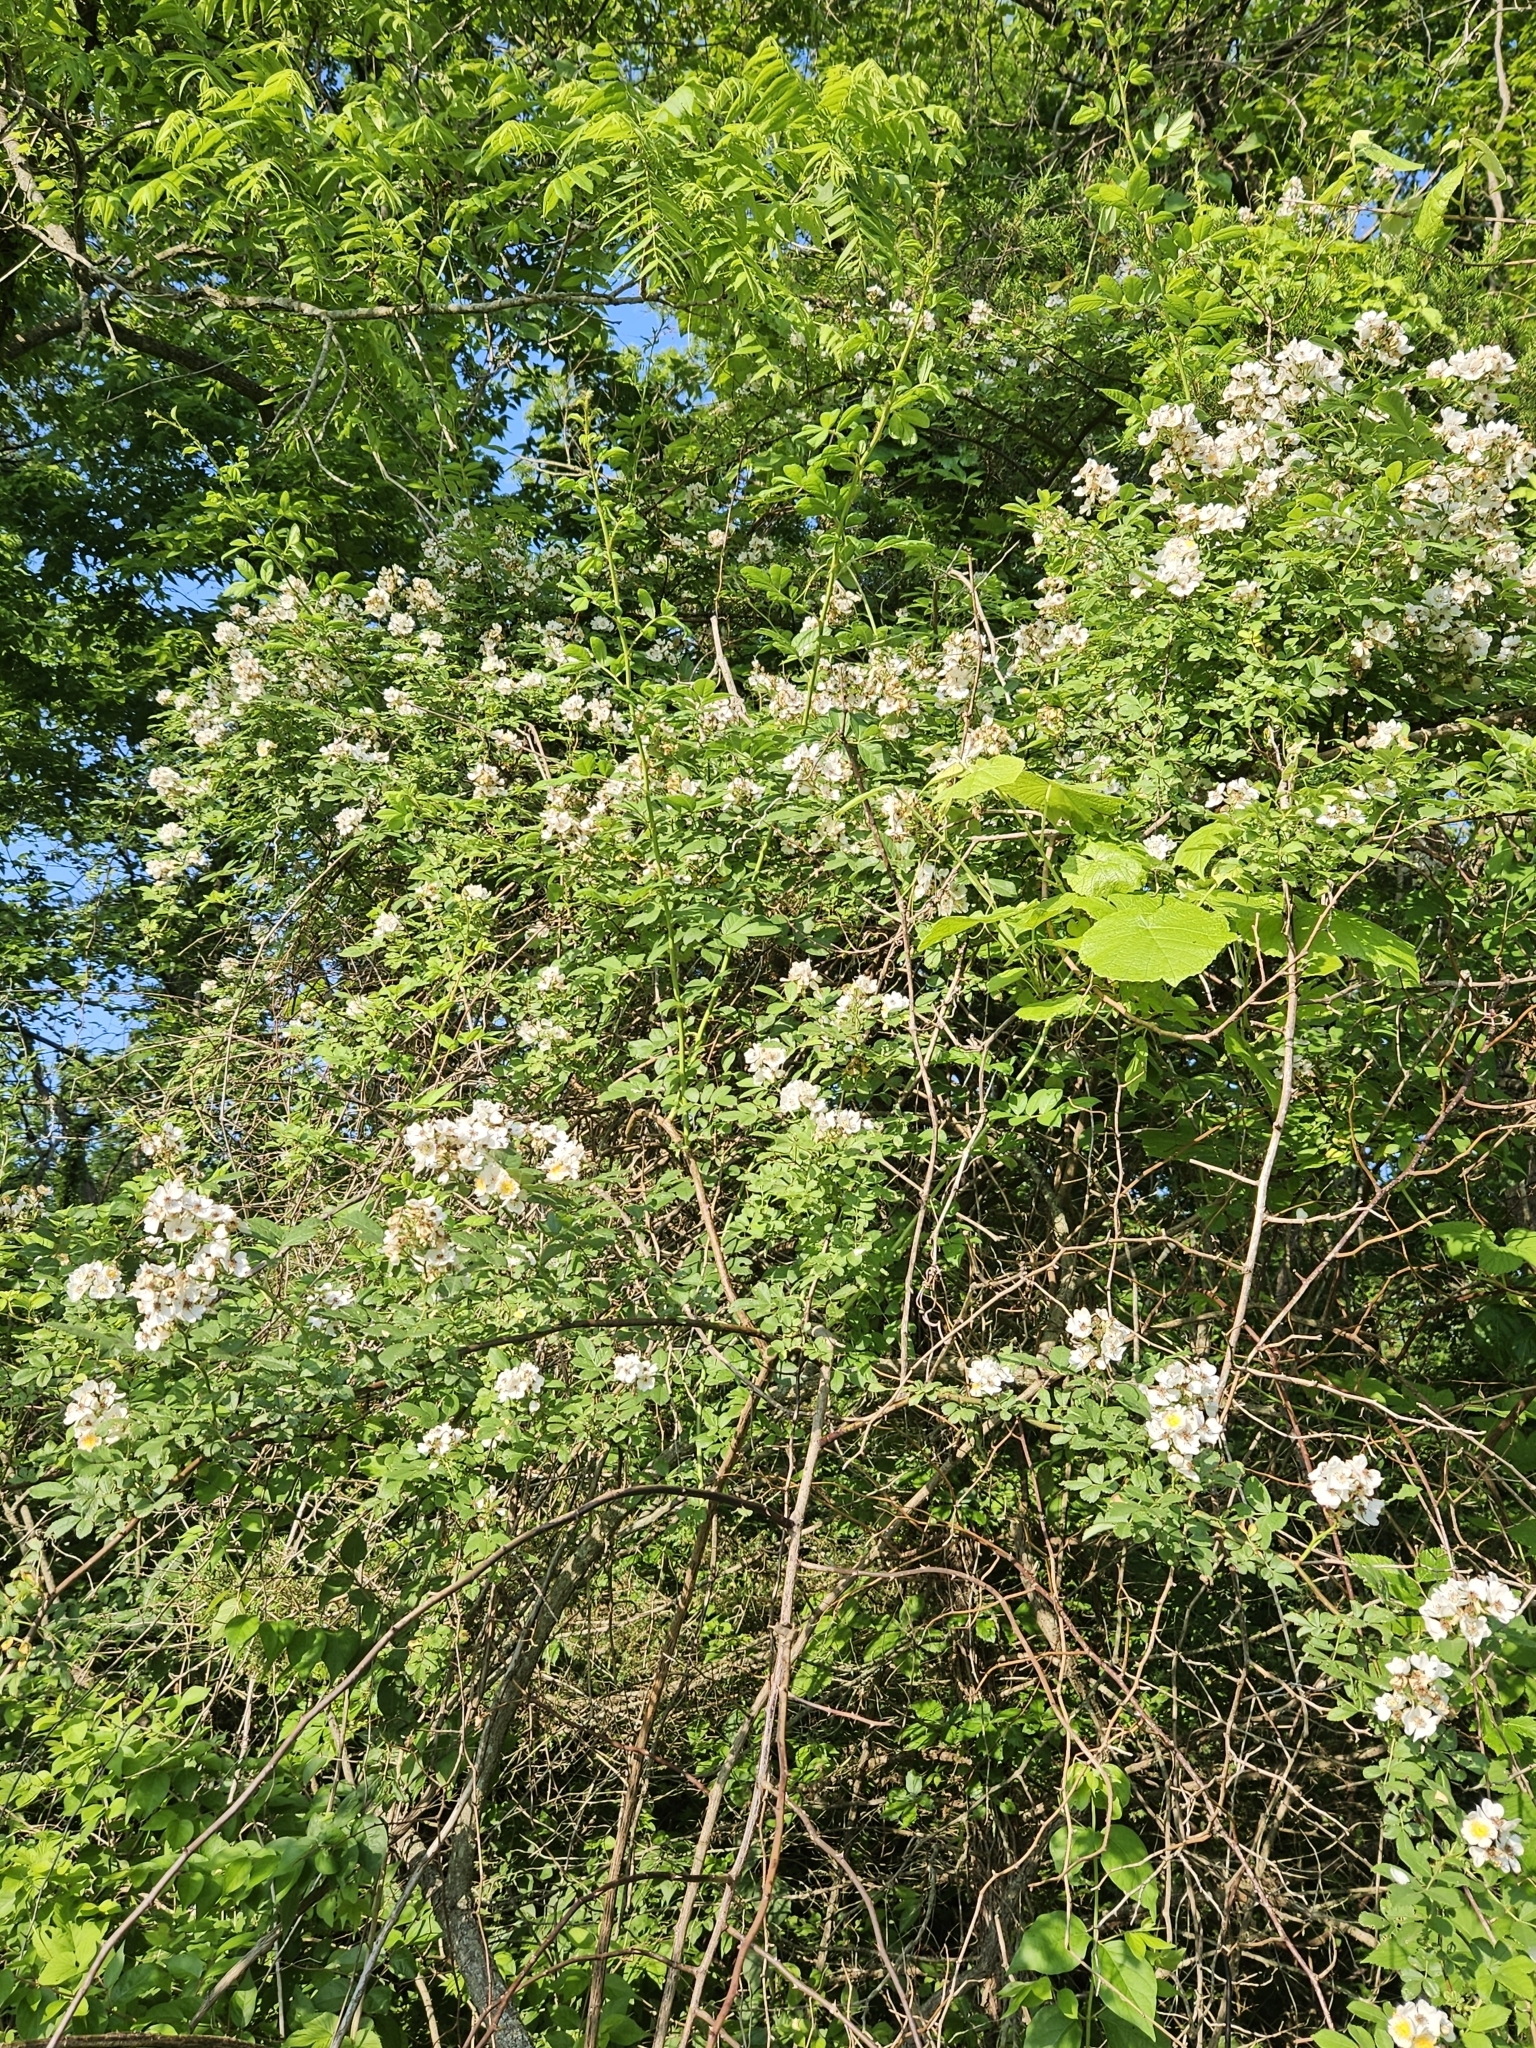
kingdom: Plantae
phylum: Tracheophyta
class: Magnoliopsida
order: Rosales
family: Rosaceae
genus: Rosa
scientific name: Rosa multiflora
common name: Multiflora rose
